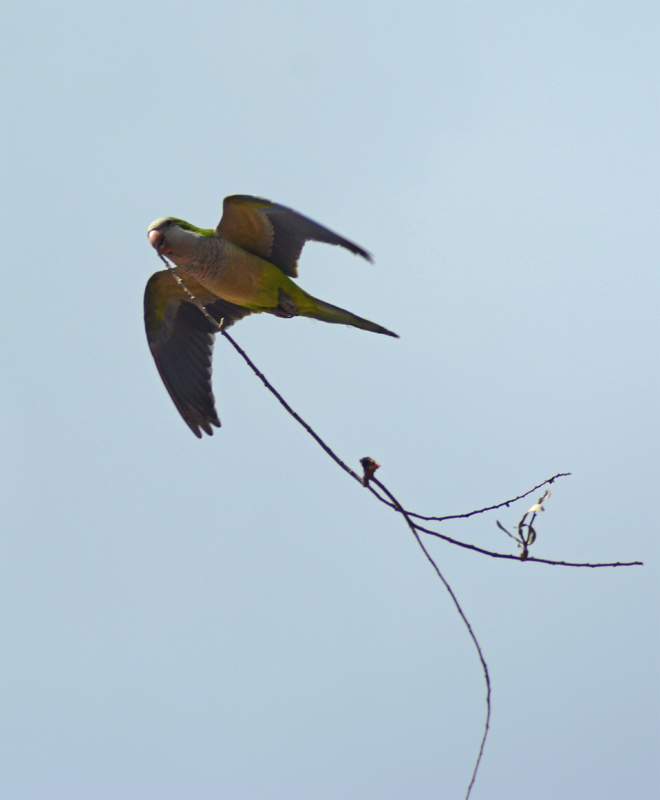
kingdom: Animalia
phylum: Chordata
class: Aves
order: Psittaciformes
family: Psittacidae
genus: Myiopsitta
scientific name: Myiopsitta monachus
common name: Monk parakeet
